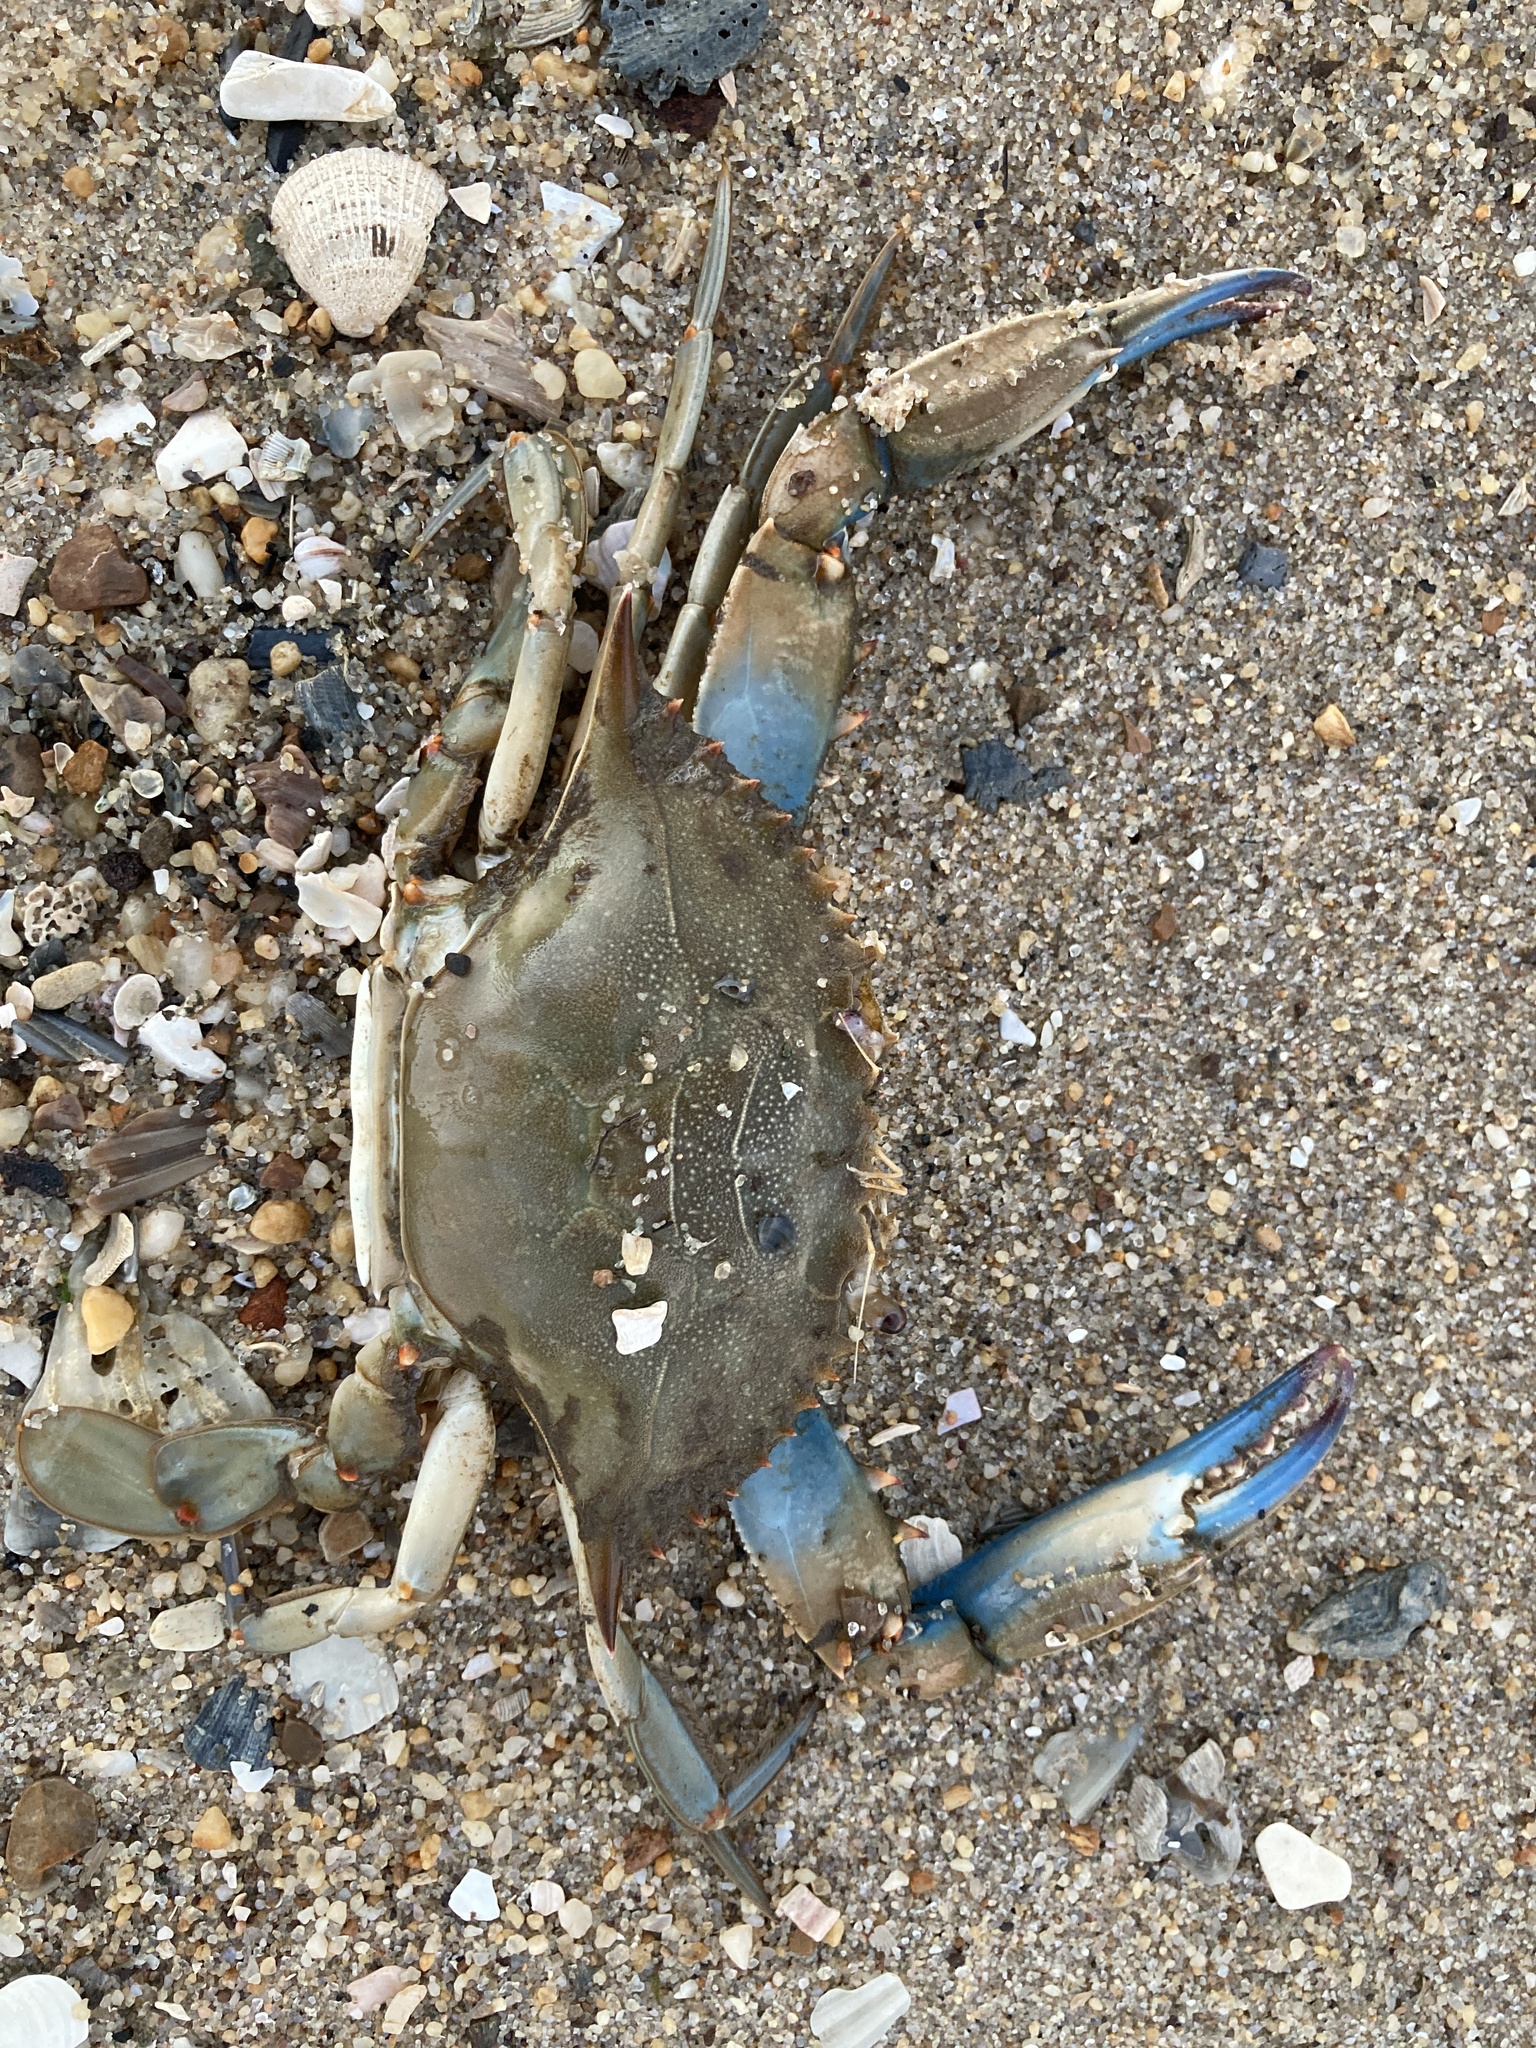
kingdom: Animalia
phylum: Arthropoda
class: Malacostraca
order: Decapoda
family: Portunidae
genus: Callinectes
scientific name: Callinectes sapidus
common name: Blue crab
